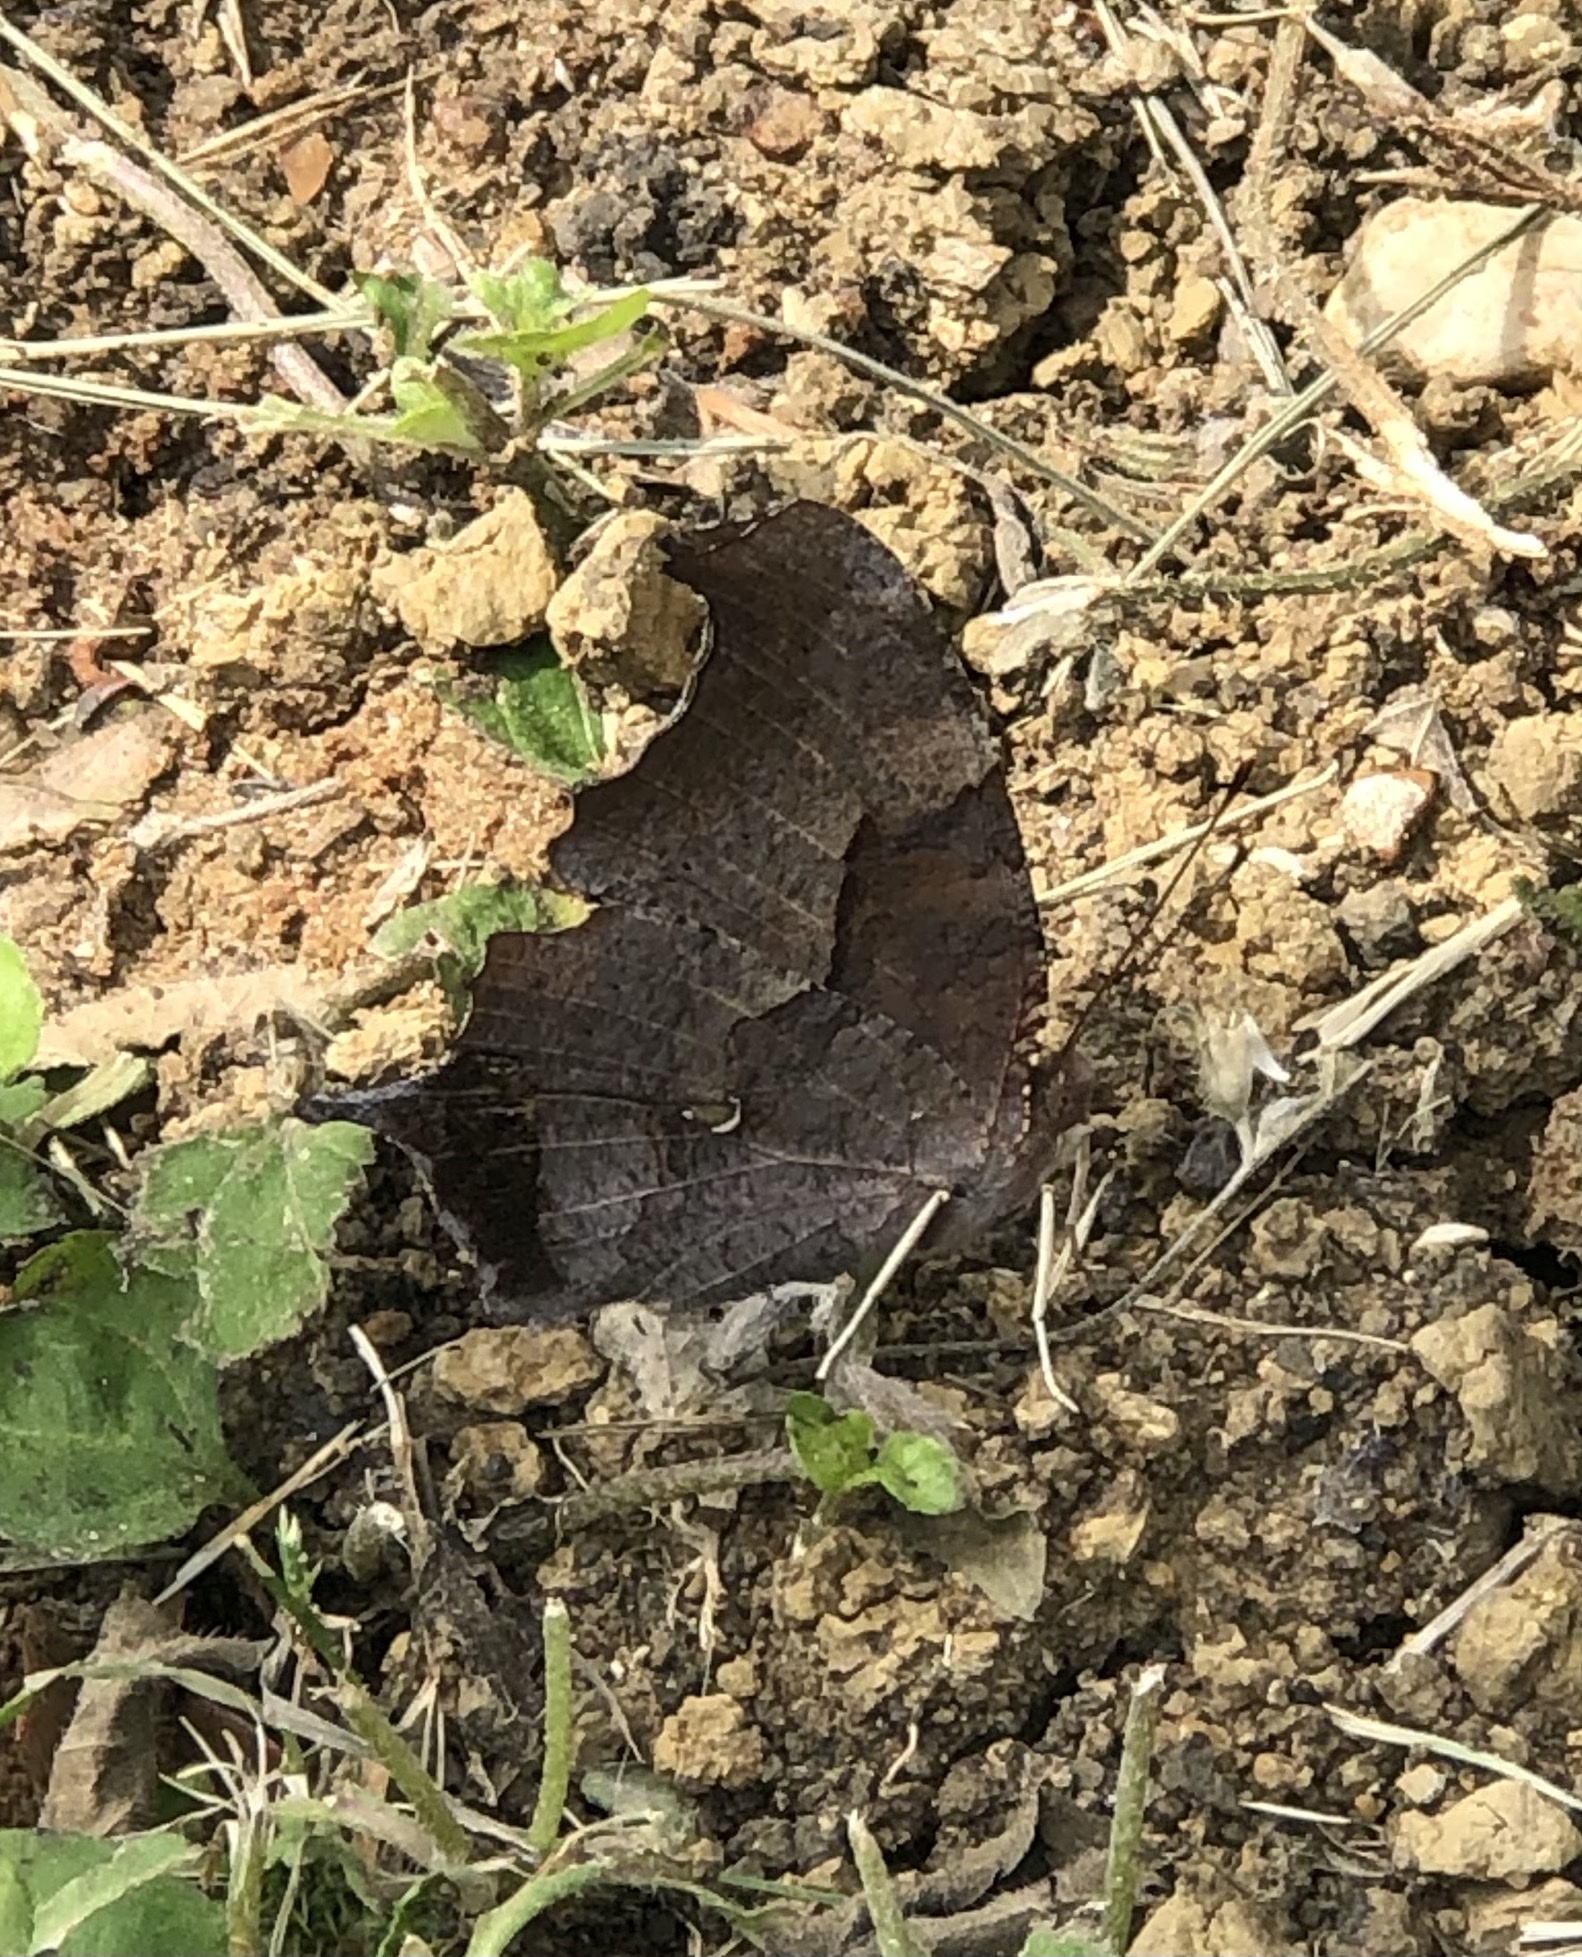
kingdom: Animalia
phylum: Arthropoda
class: Insecta
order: Lepidoptera
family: Nymphalidae
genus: Polygonia
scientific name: Polygonia interrogationis
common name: Question mark
